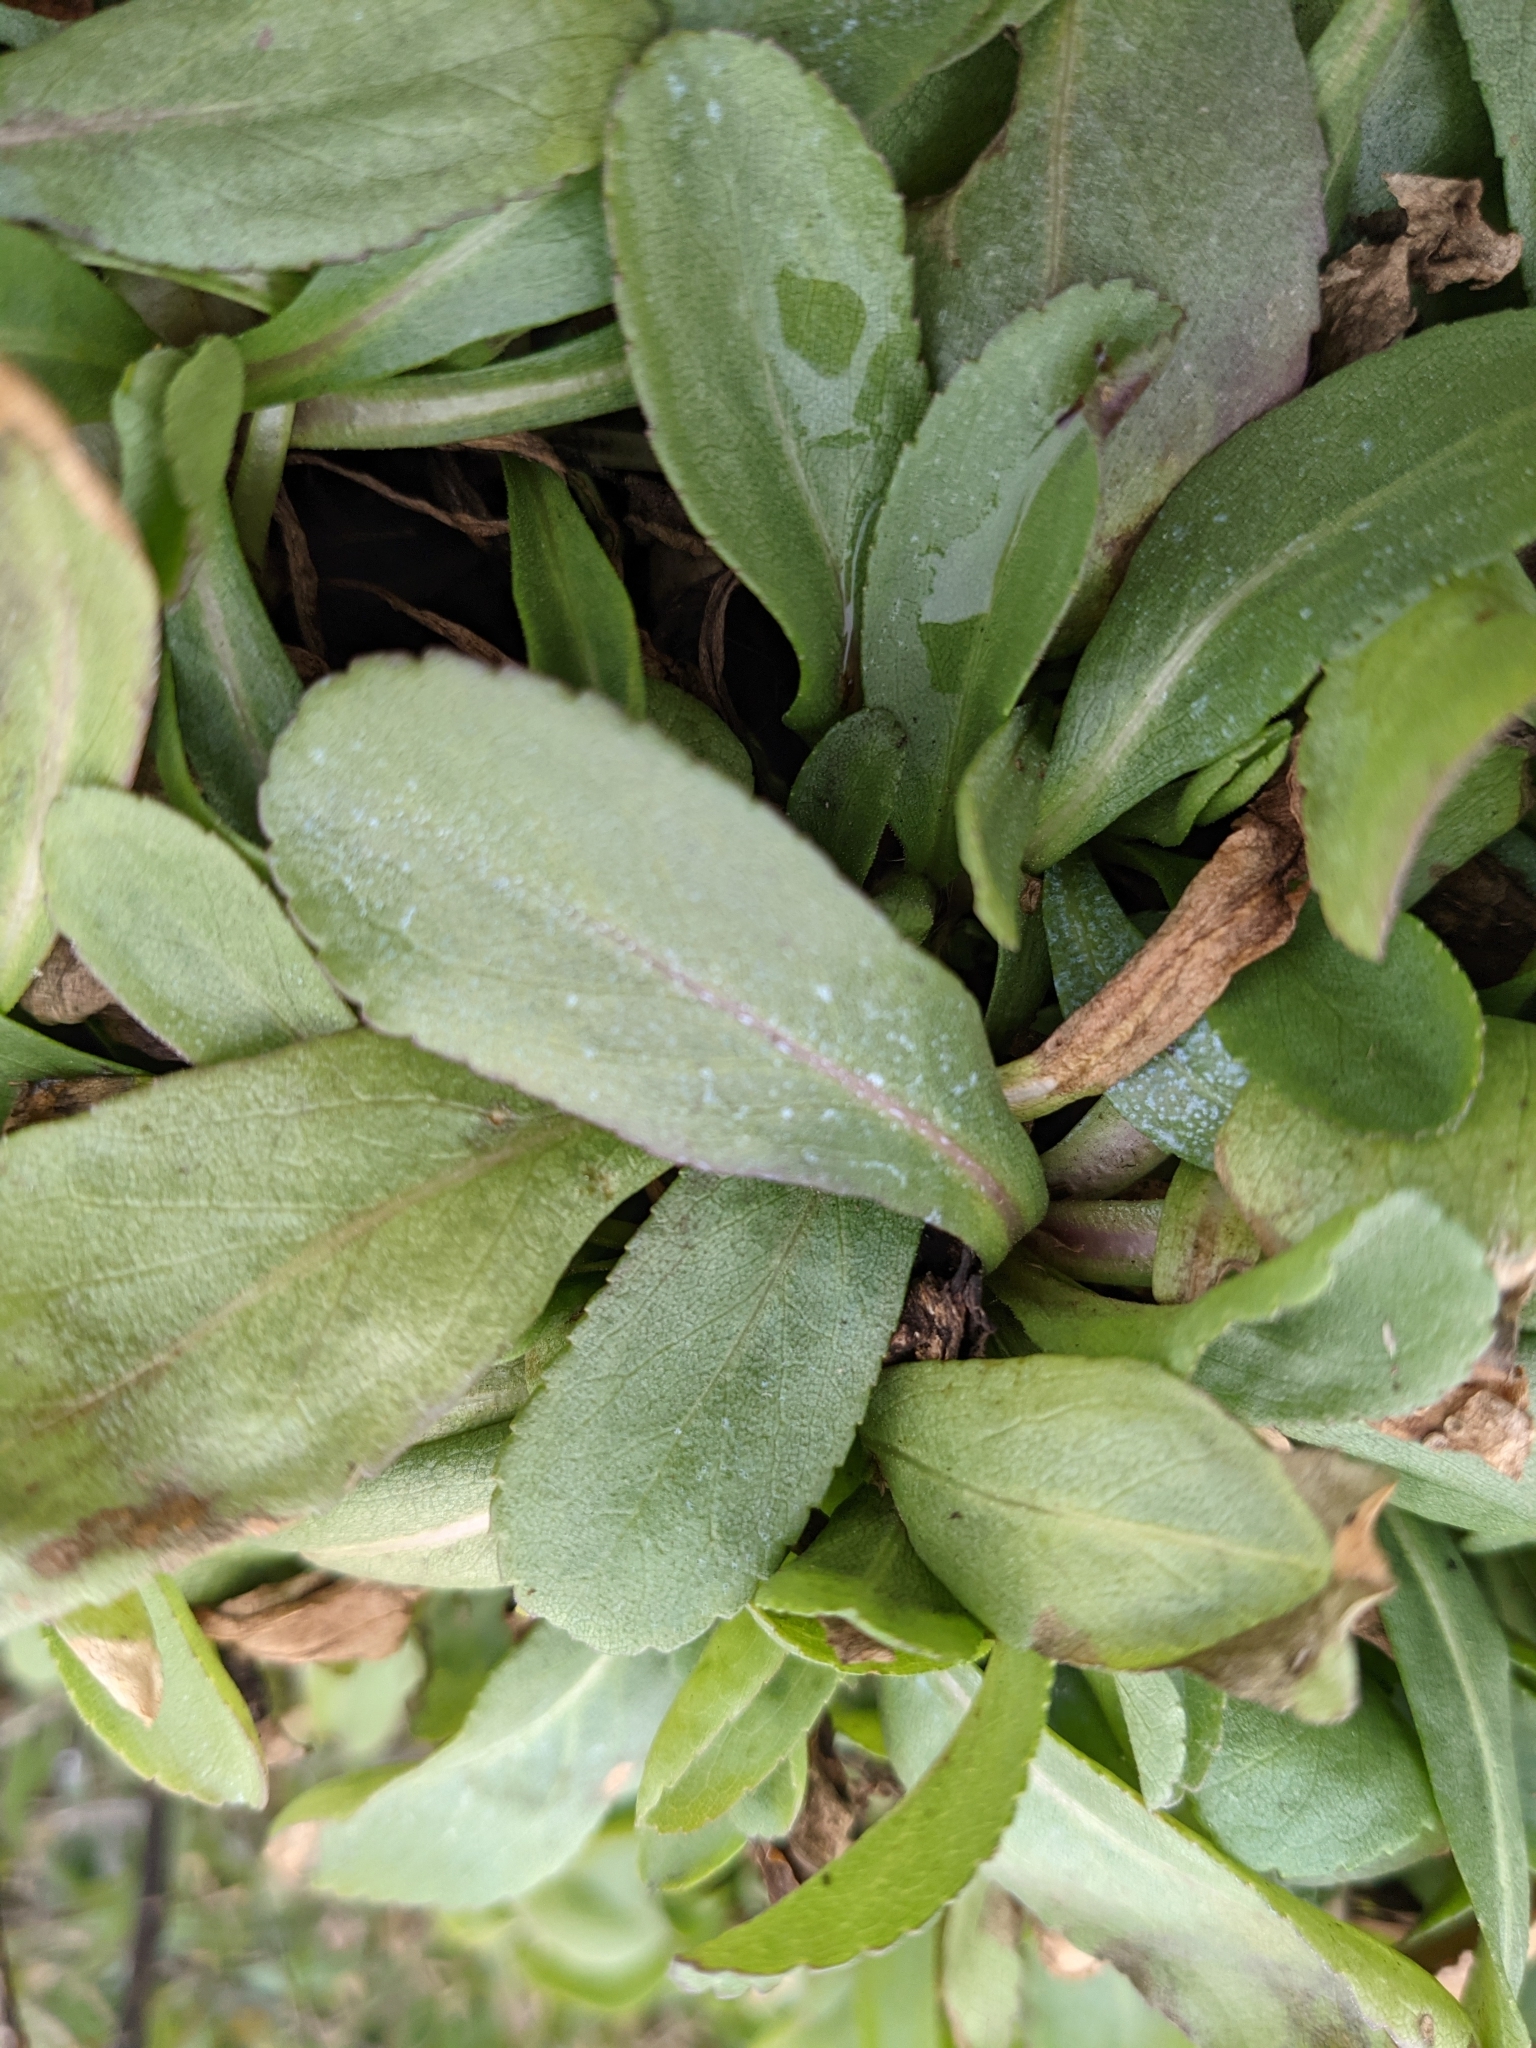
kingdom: Plantae
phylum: Tracheophyta
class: Magnoliopsida
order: Asterales
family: Asteraceae
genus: Grindelia
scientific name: Grindelia hirsutula
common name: Hairy gumweed
